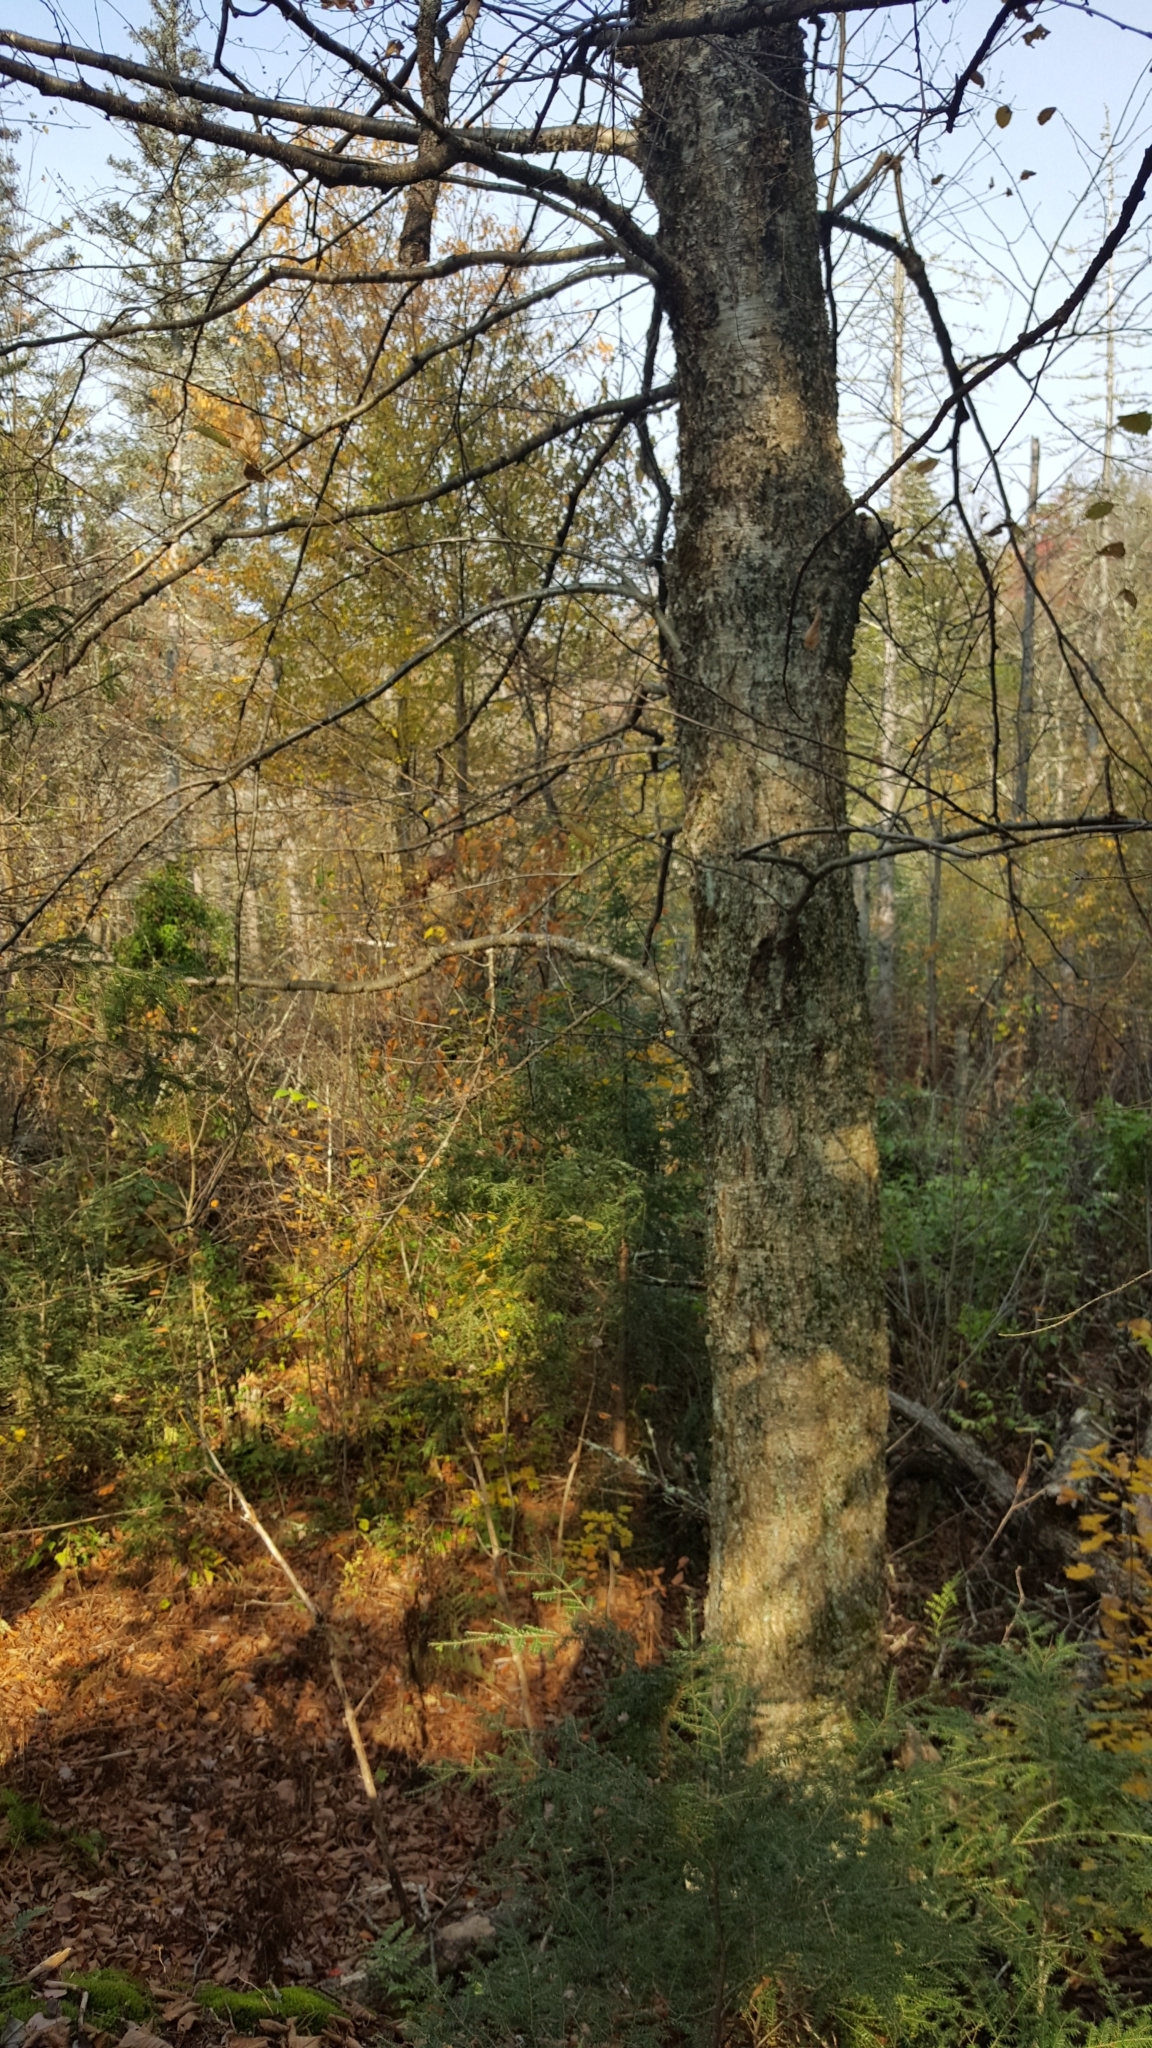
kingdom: Plantae
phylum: Tracheophyta
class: Magnoliopsida
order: Fagales
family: Betulaceae
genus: Betula
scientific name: Betula alleghaniensis
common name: Yellow birch
